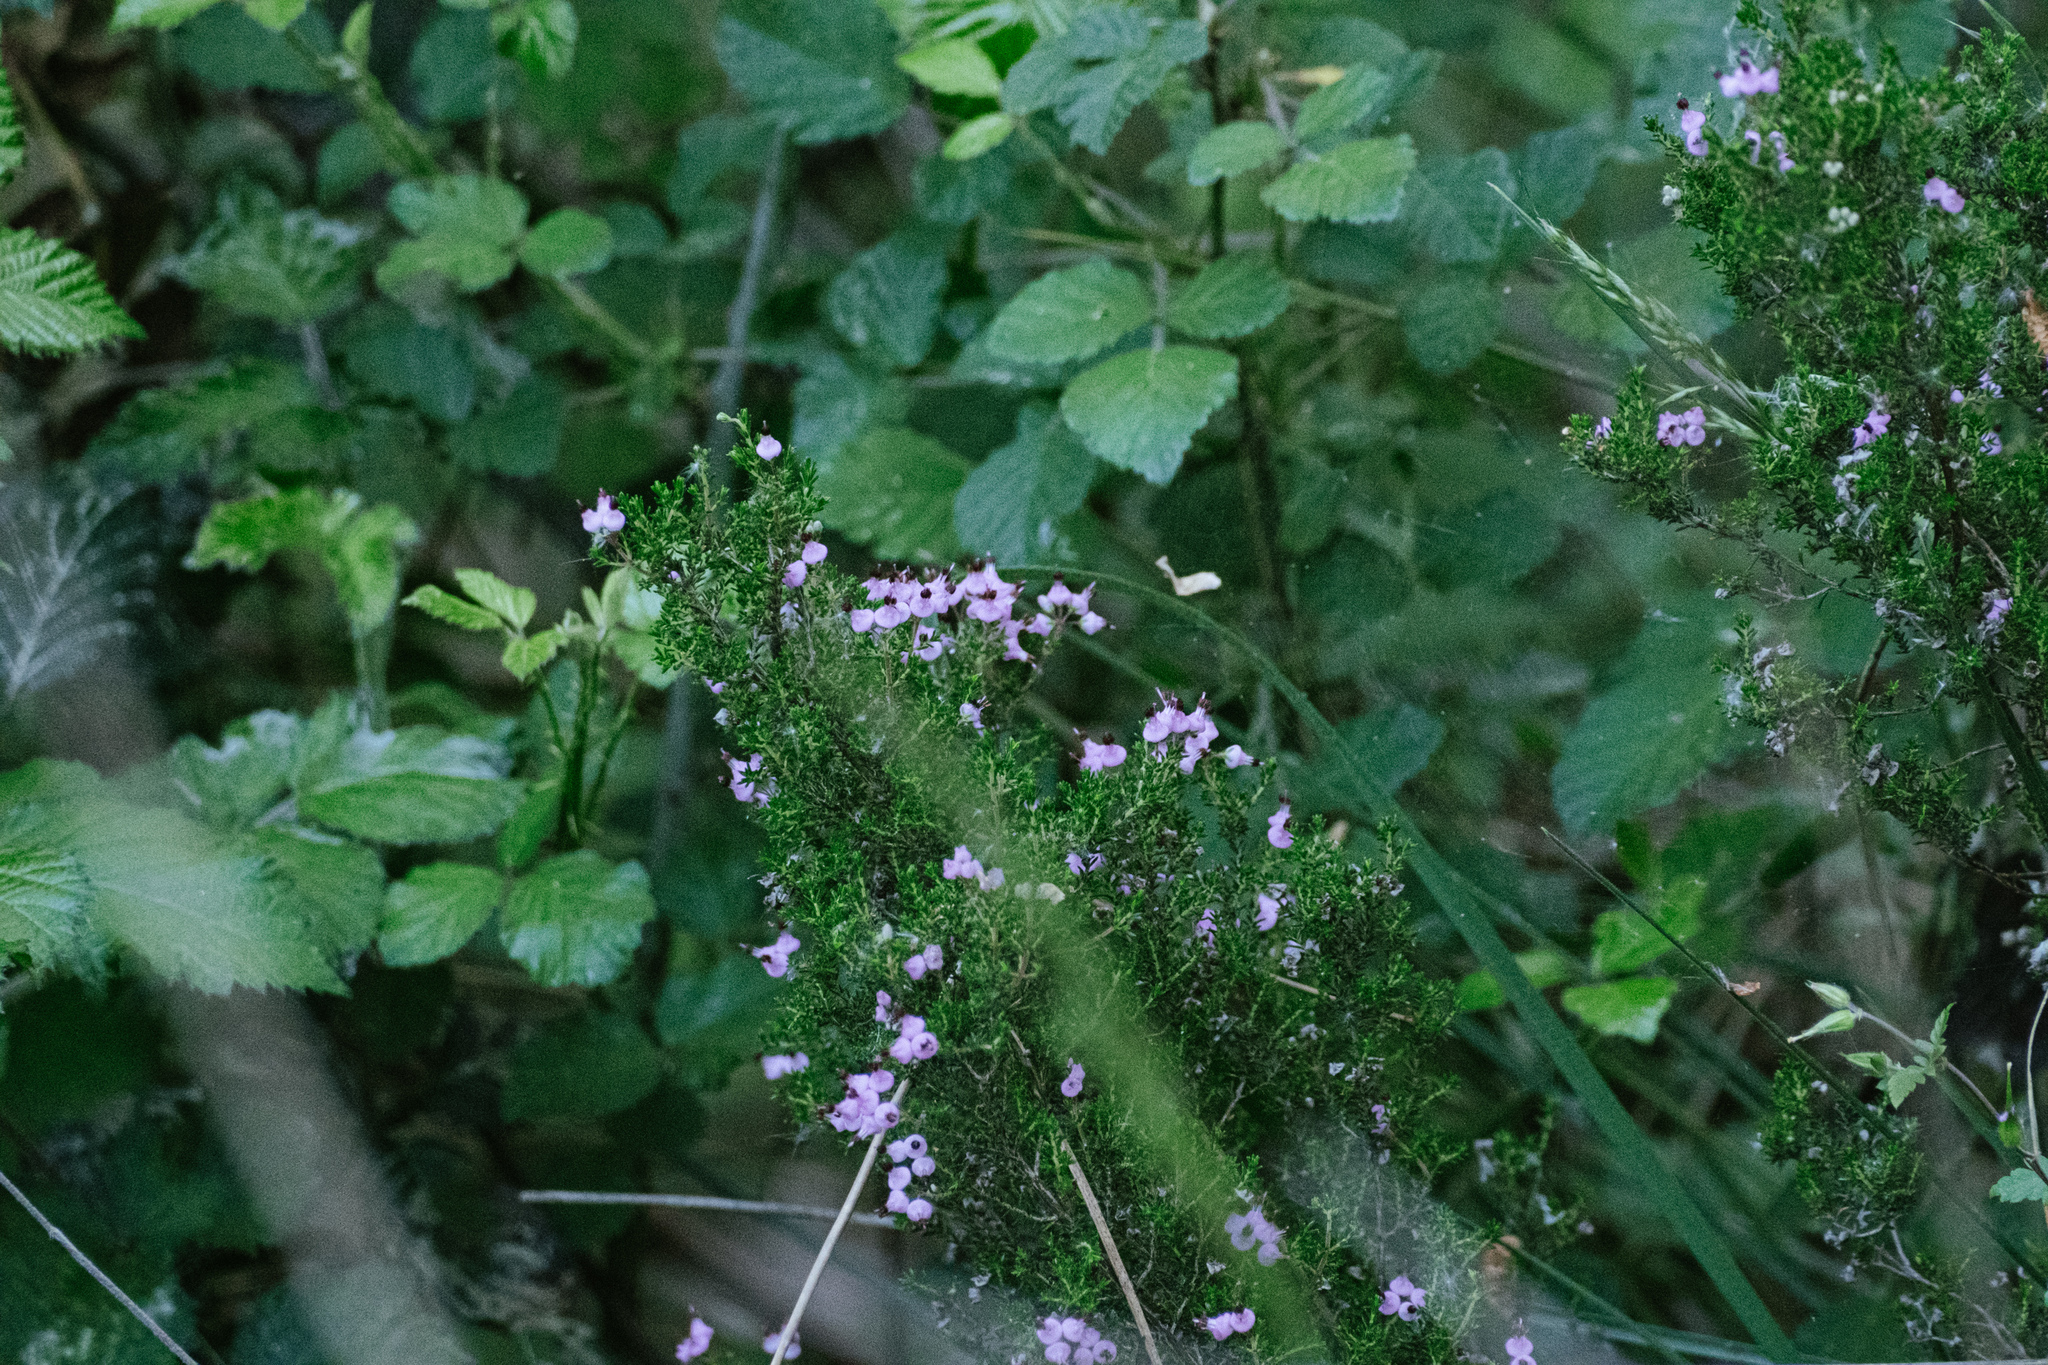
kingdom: Plantae
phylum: Tracheophyta
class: Magnoliopsida
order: Ericales
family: Ericaceae
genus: Erica
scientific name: Erica umbellata
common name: Dwarf spanish heath
